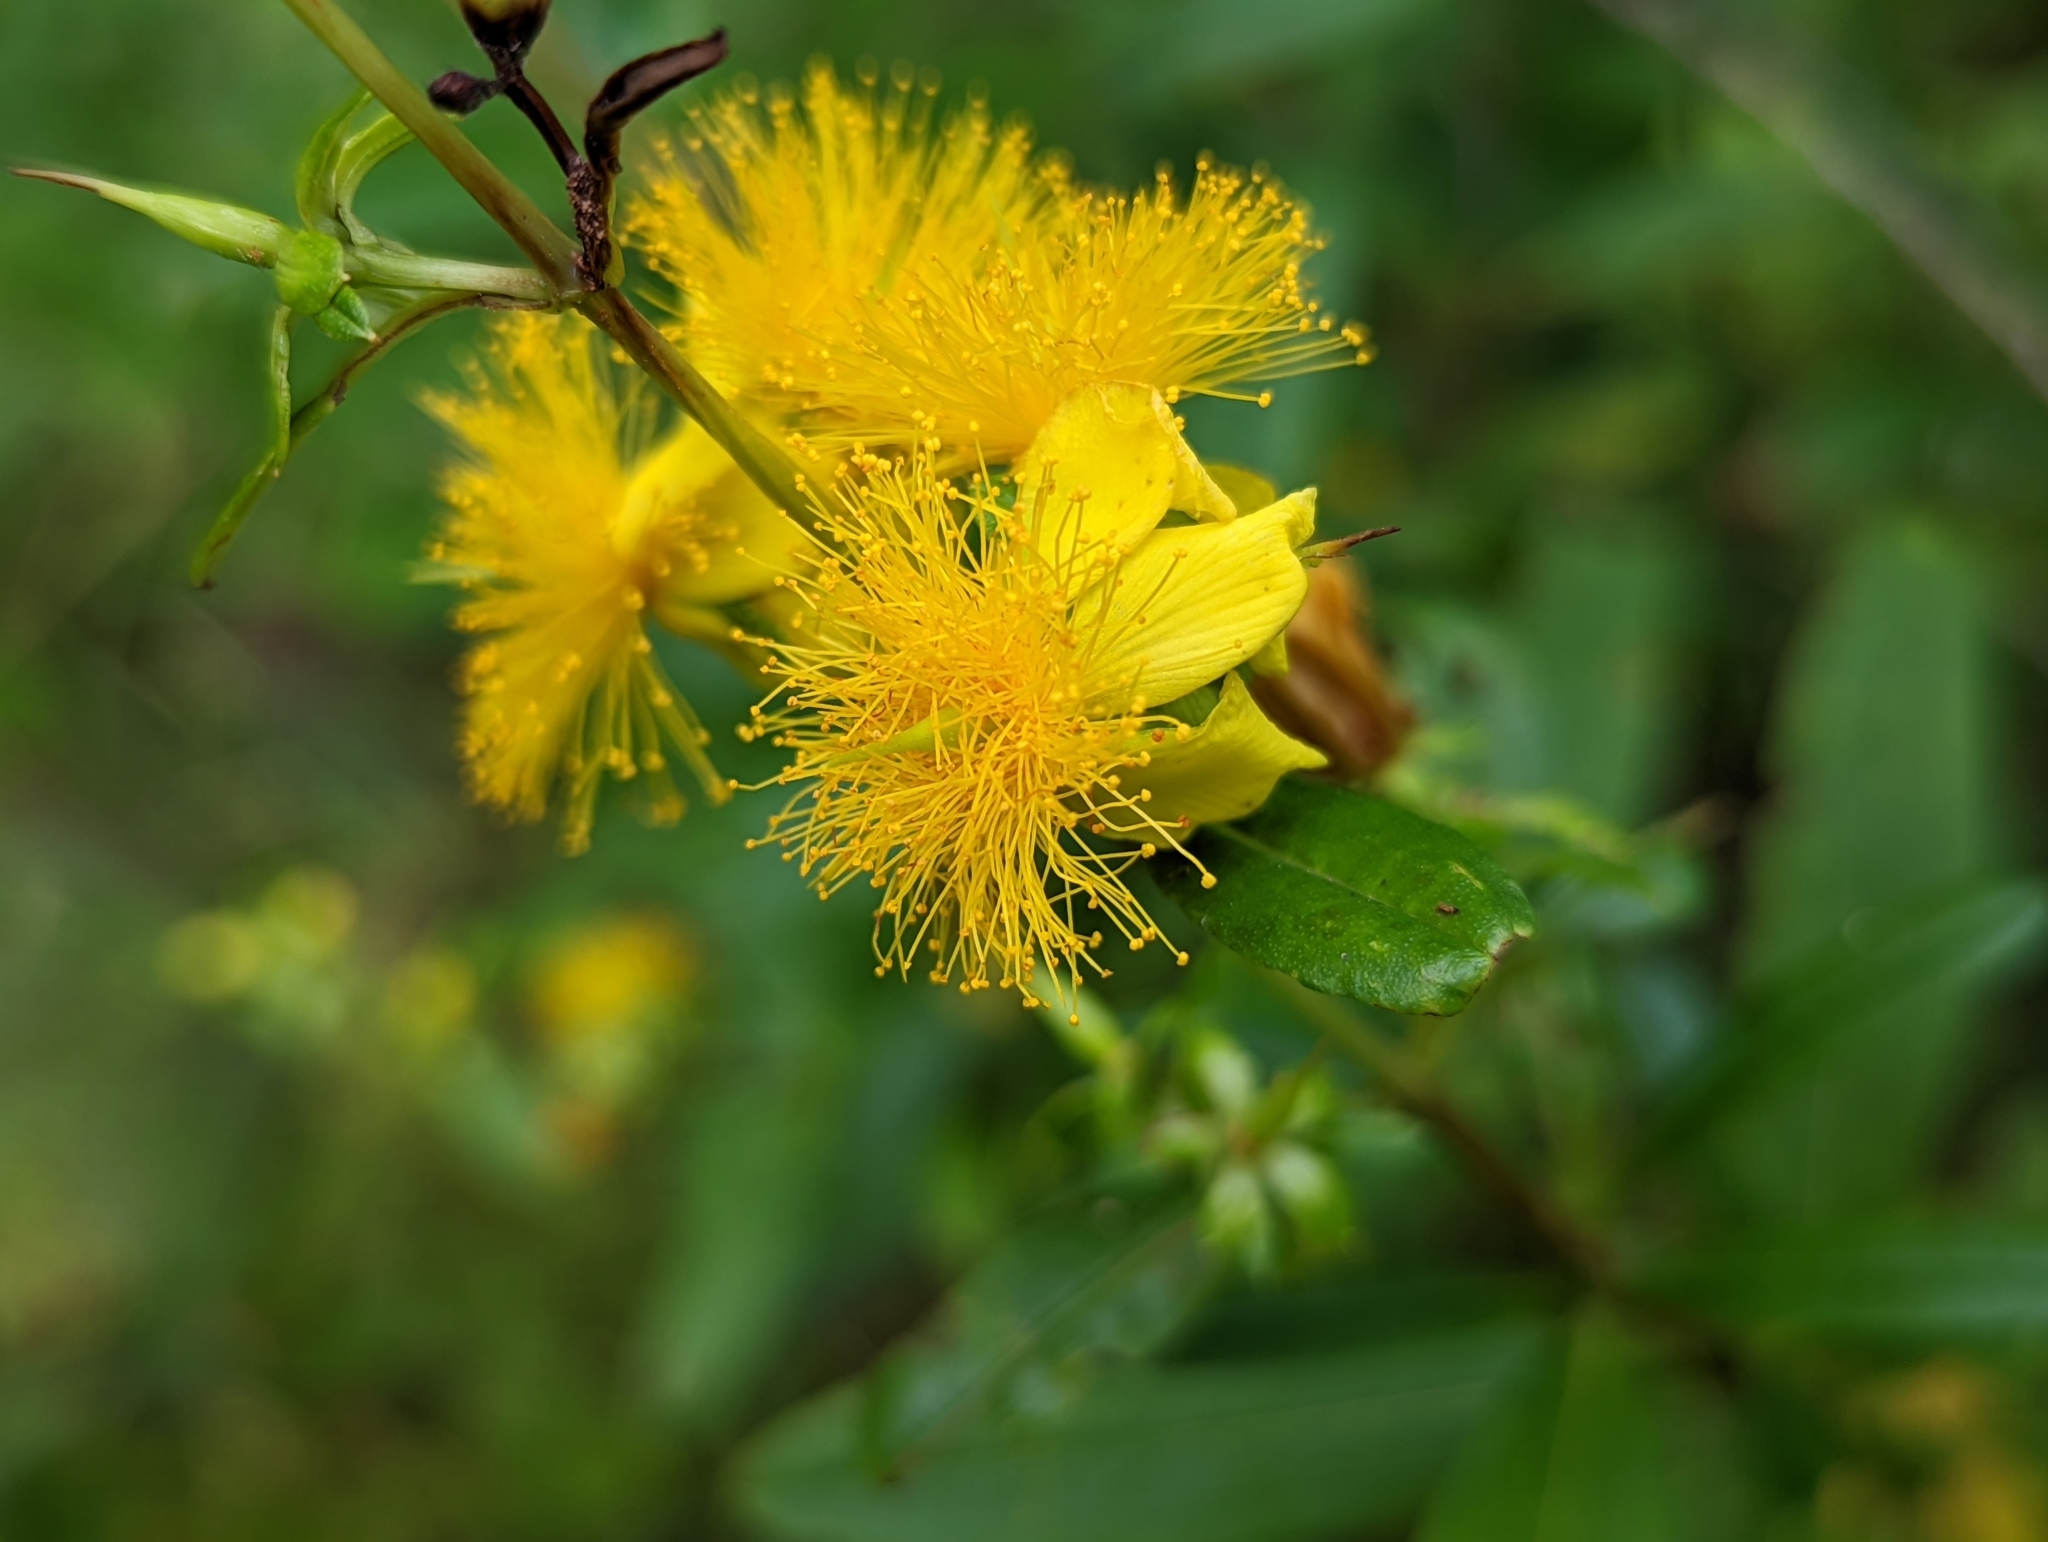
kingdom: Plantae
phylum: Tracheophyta
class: Magnoliopsida
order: Malpighiales
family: Hypericaceae
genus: Hypericum
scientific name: Hypericum prolificum
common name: Shrubby st. john's-wort
